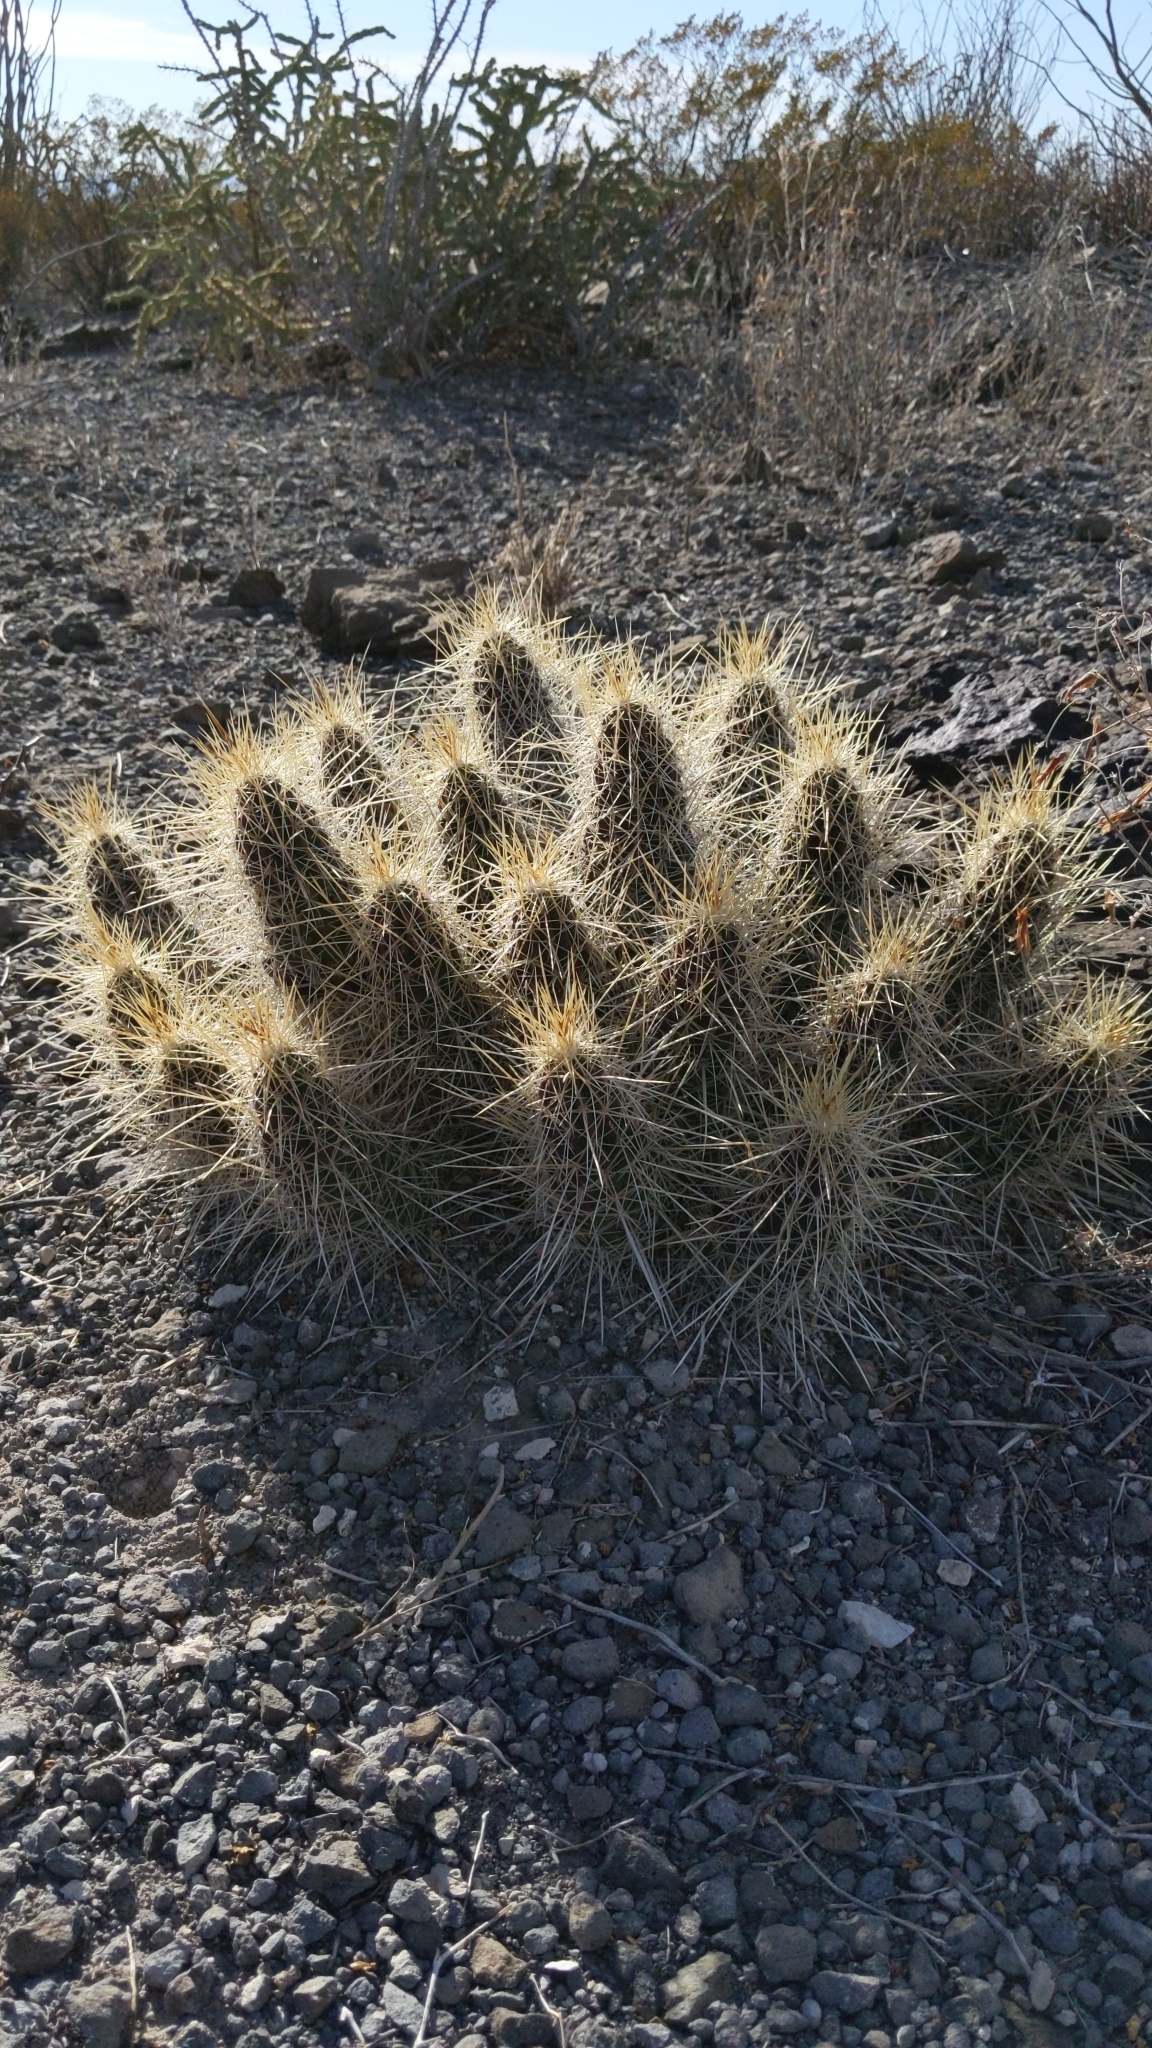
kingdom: Plantae
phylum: Tracheophyta
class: Magnoliopsida
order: Caryophyllales
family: Cactaceae
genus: Echinocereus
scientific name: Echinocereus stramineus
